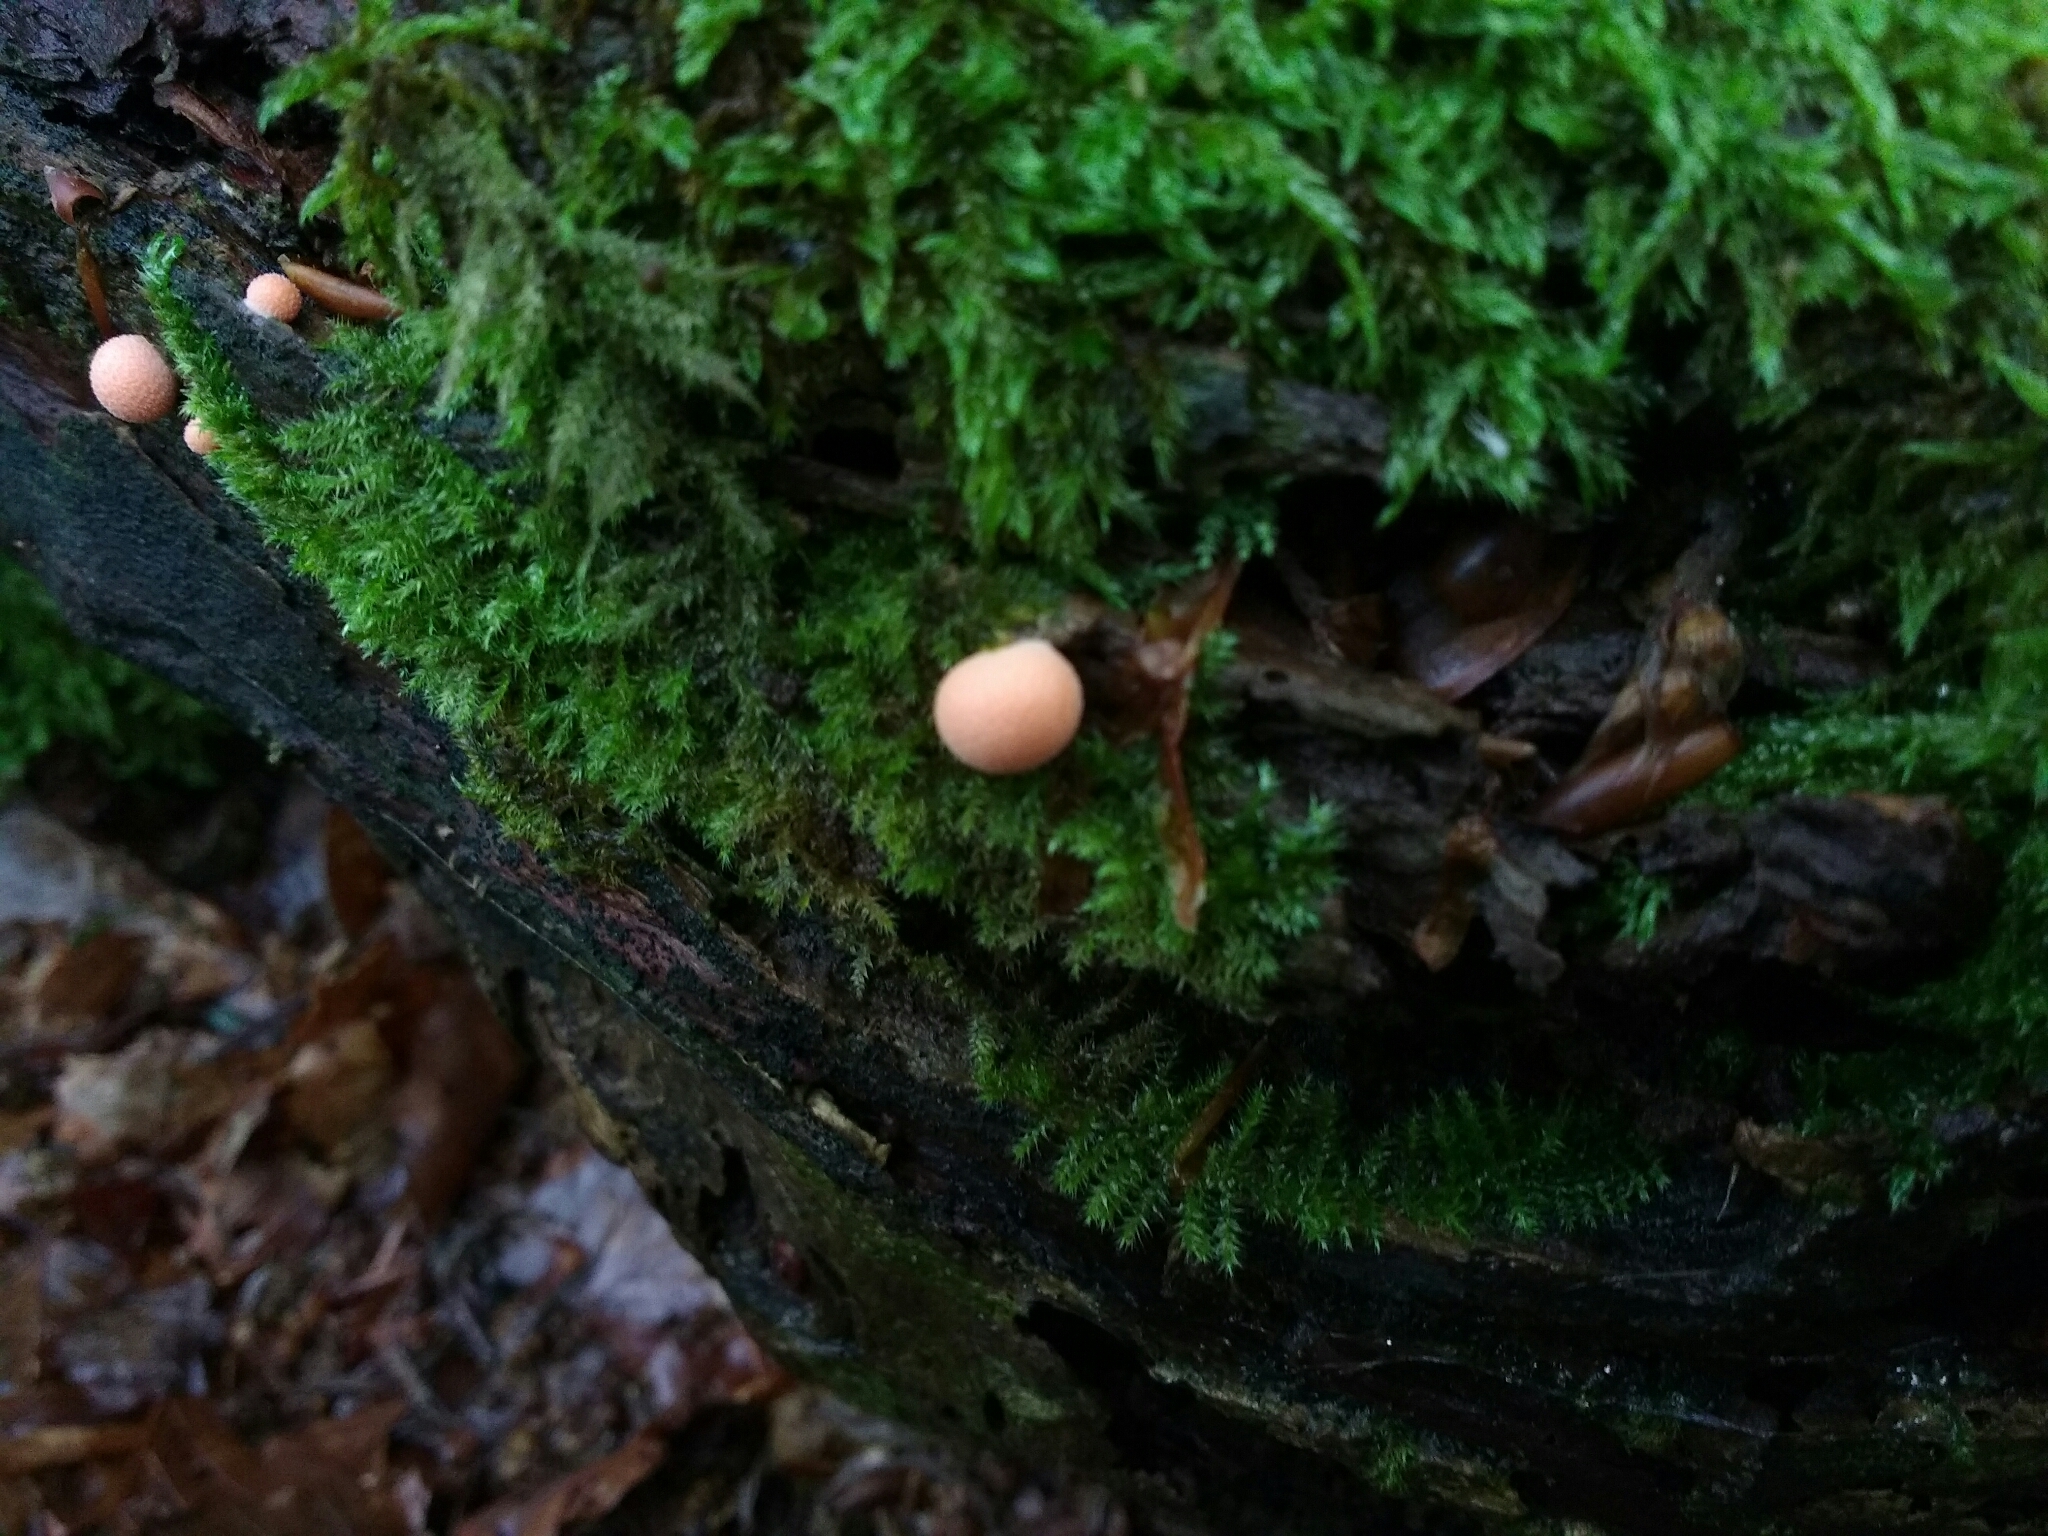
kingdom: Protozoa
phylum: Mycetozoa
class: Myxomycetes
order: Cribrariales
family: Tubiferaceae
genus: Lycogala
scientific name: Lycogala epidendrum
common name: Wolf's milk
